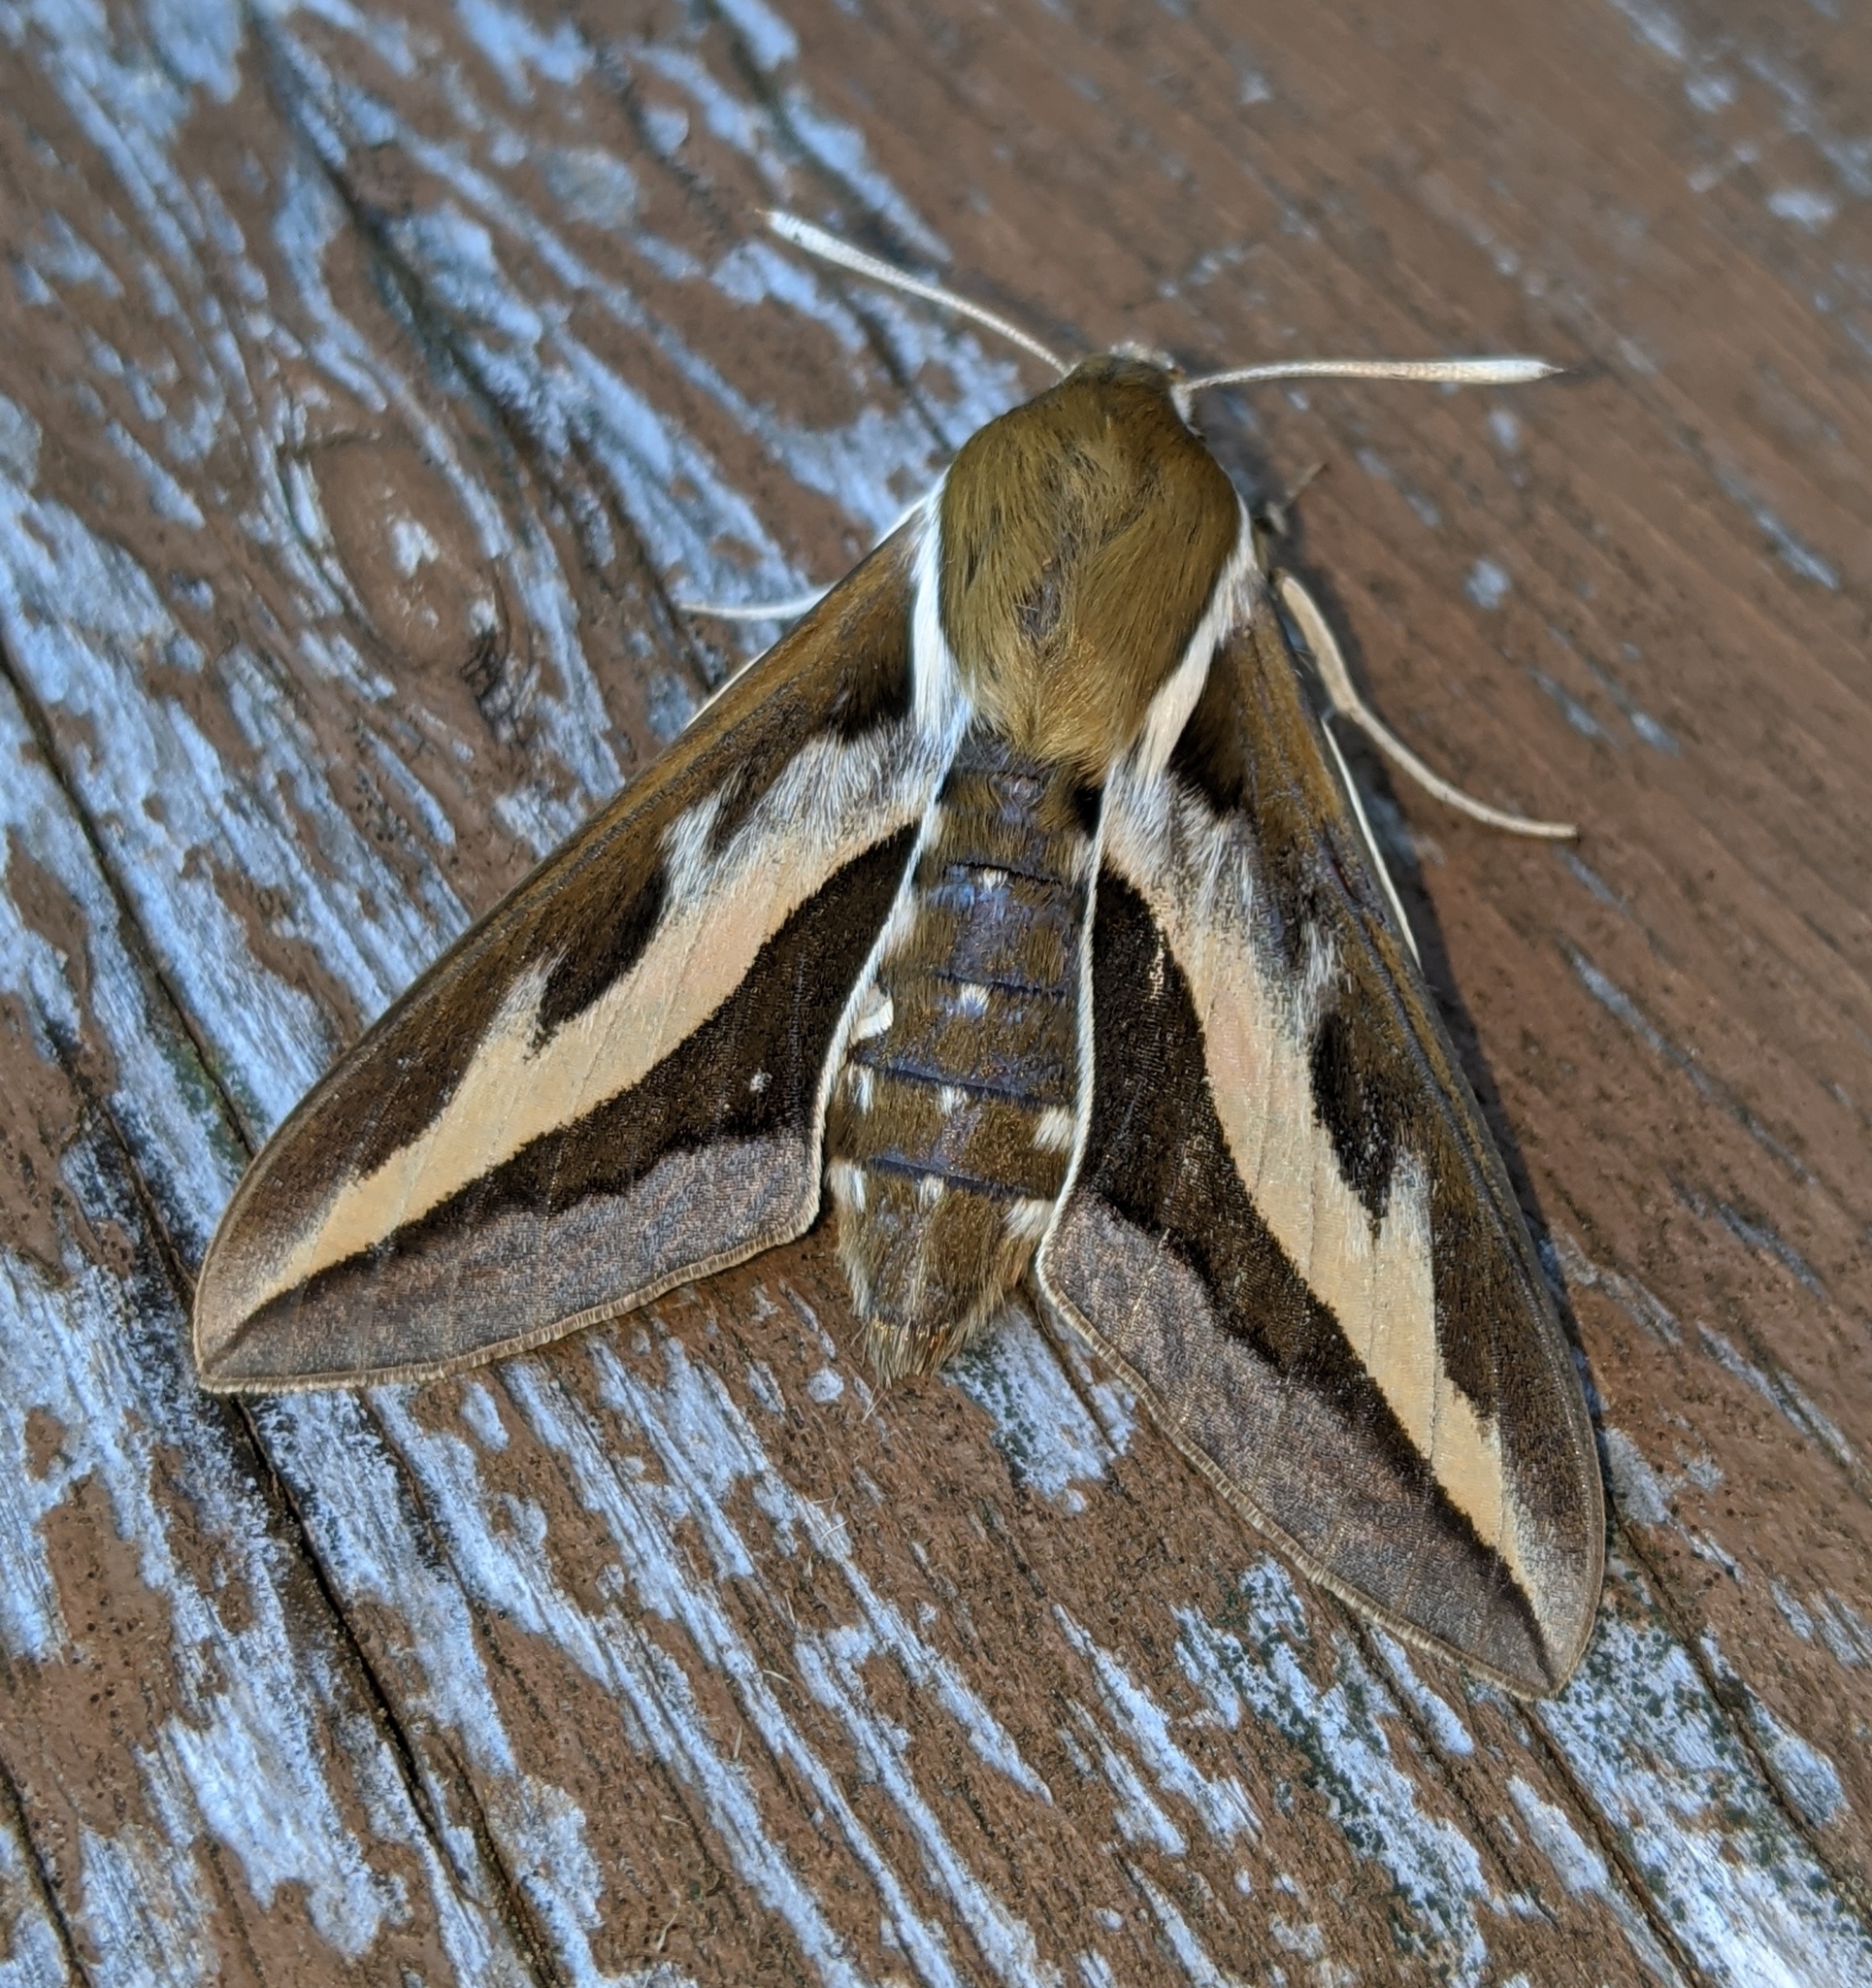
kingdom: Animalia
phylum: Arthropoda
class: Insecta
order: Lepidoptera
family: Sphingidae
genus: Hyles
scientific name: Hyles gallii
